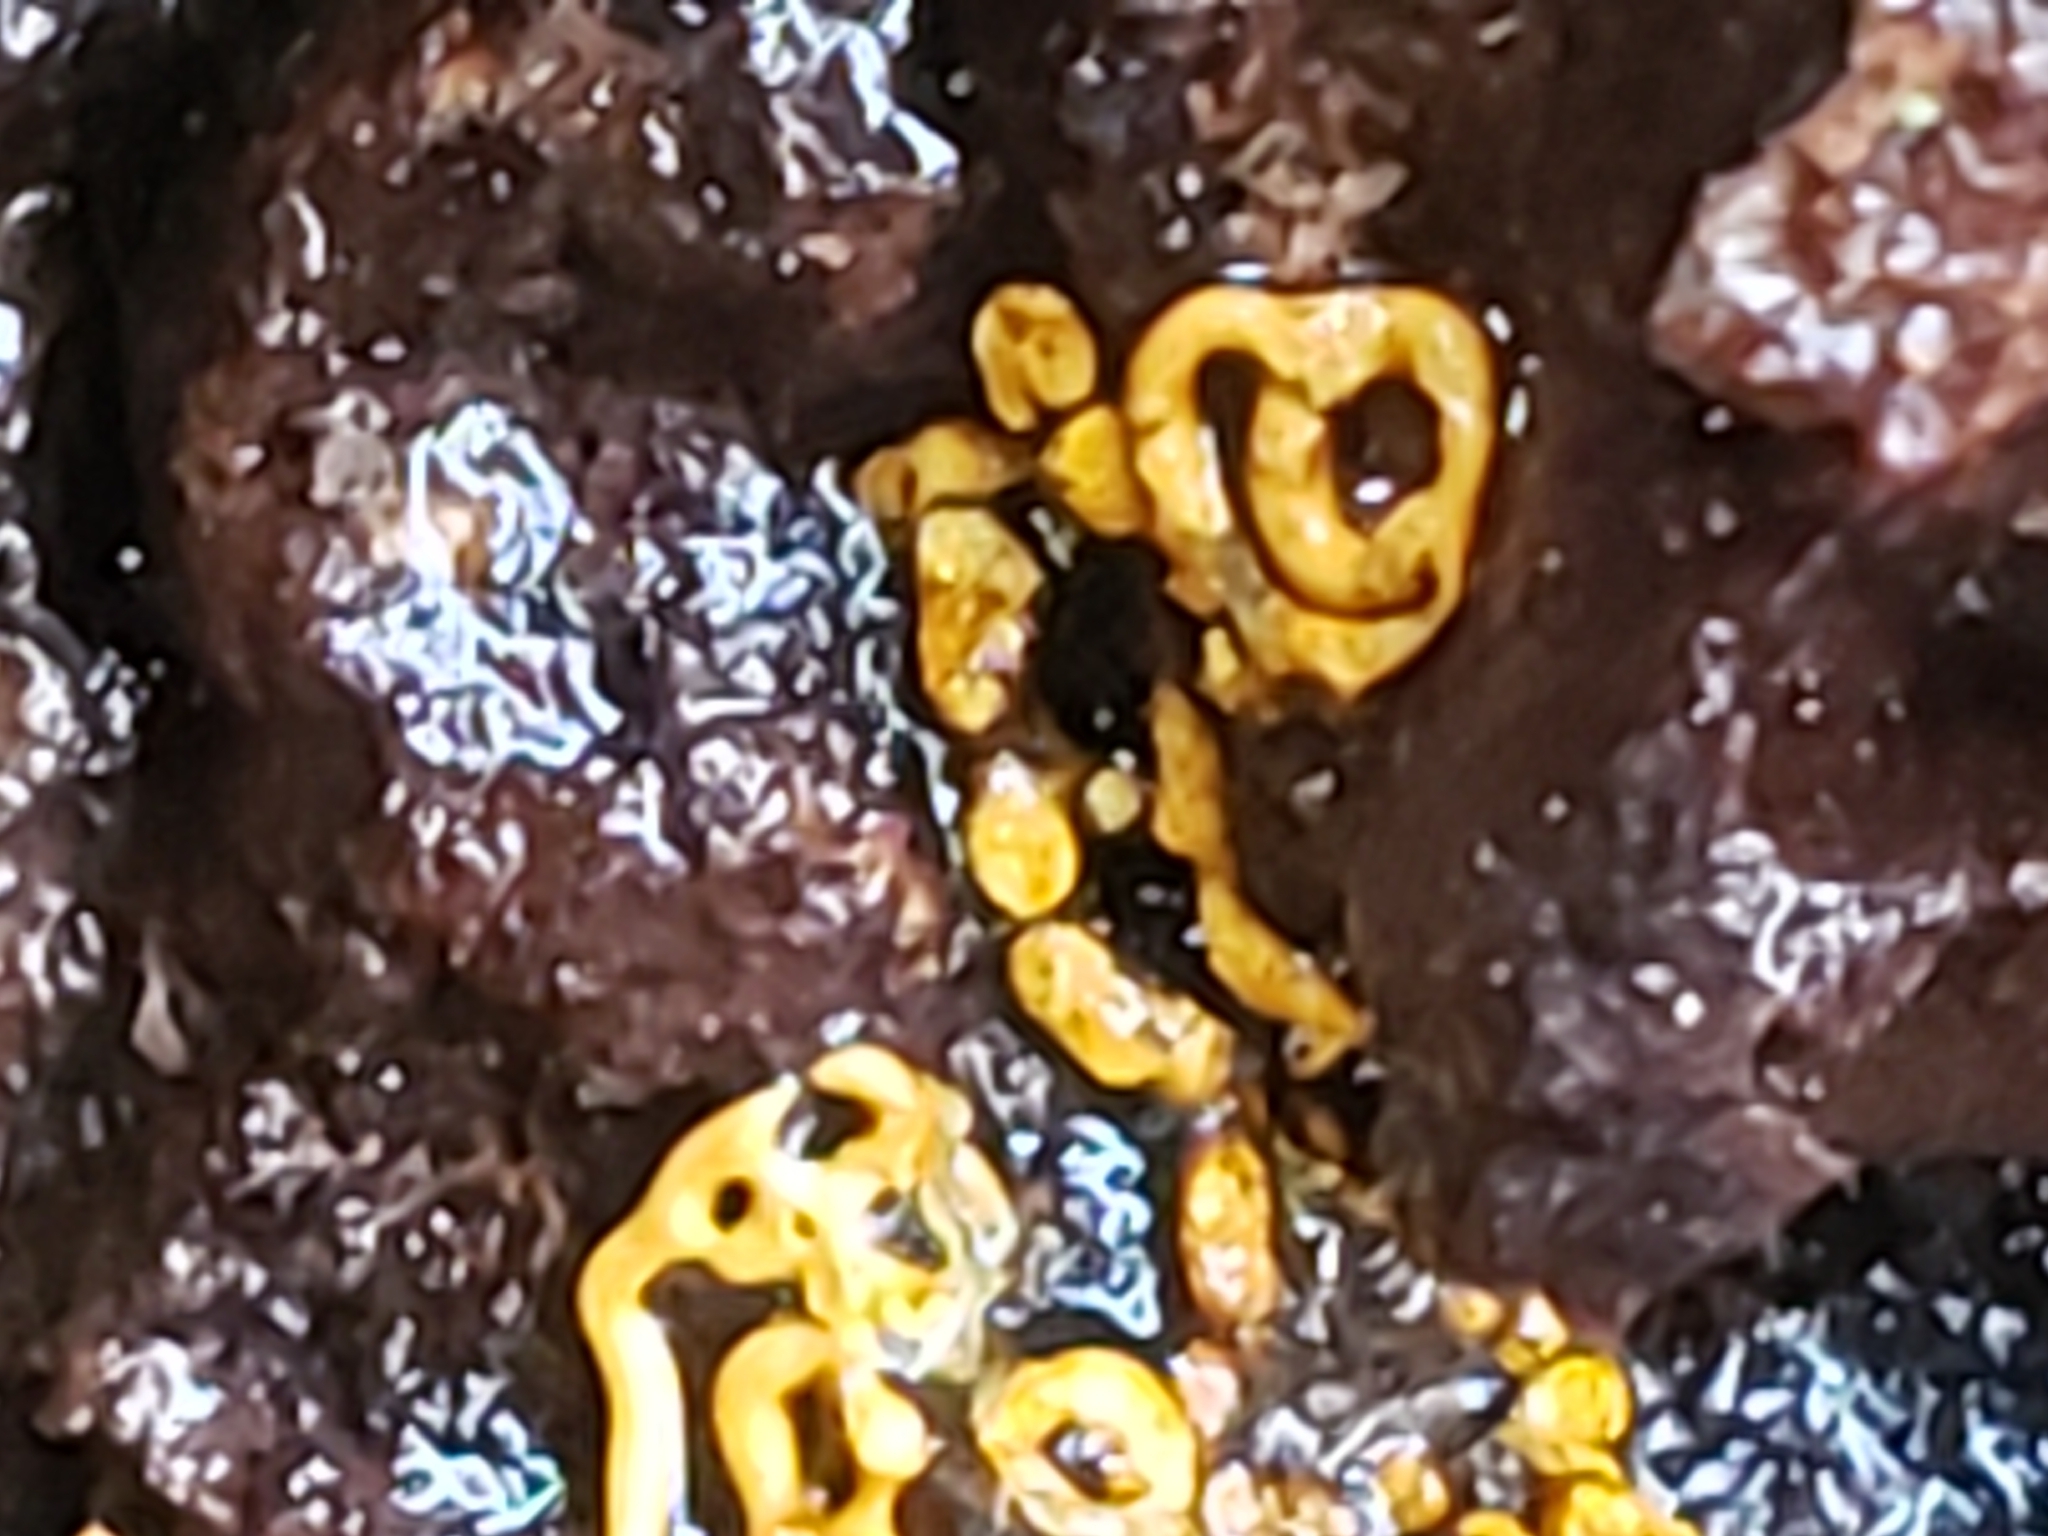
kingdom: Protozoa
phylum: Mycetozoa
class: Myxomycetes
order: Trichiales
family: Arcyriaceae
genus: Hemitrichia
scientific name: Hemitrichia serpula
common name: Pretzel slime mold
